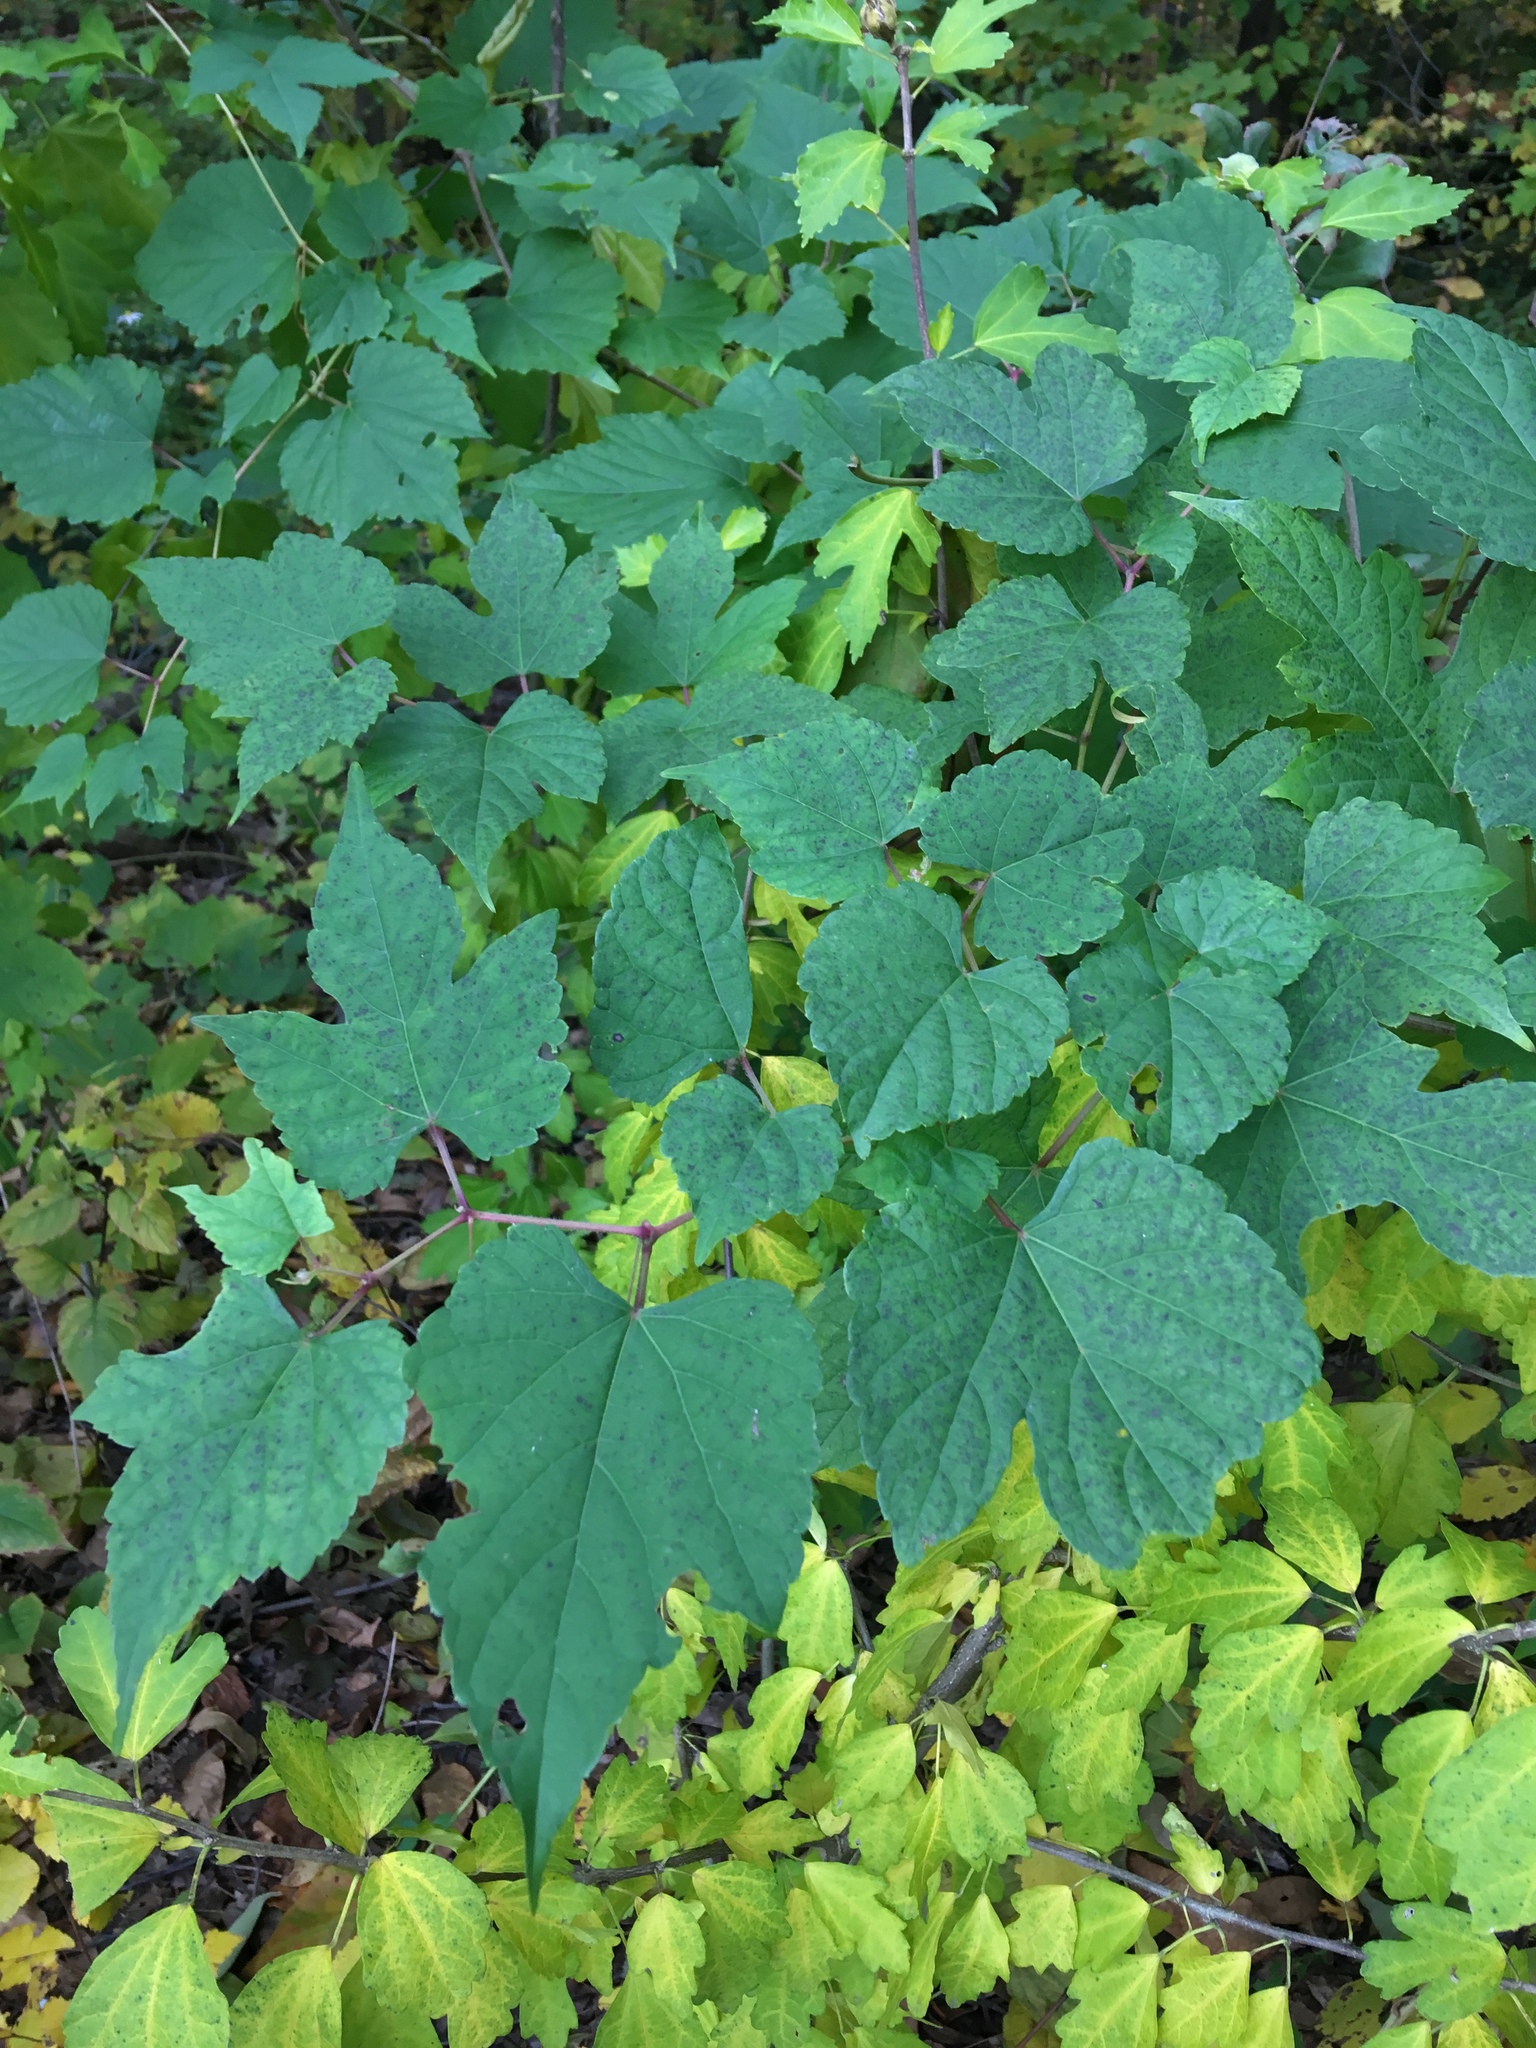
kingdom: Plantae
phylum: Tracheophyta
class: Magnoliopsida
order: Vitales
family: Vitaceae
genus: Ampelopsis
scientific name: Ampelopsis glandulosa
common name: Amur peppervine
